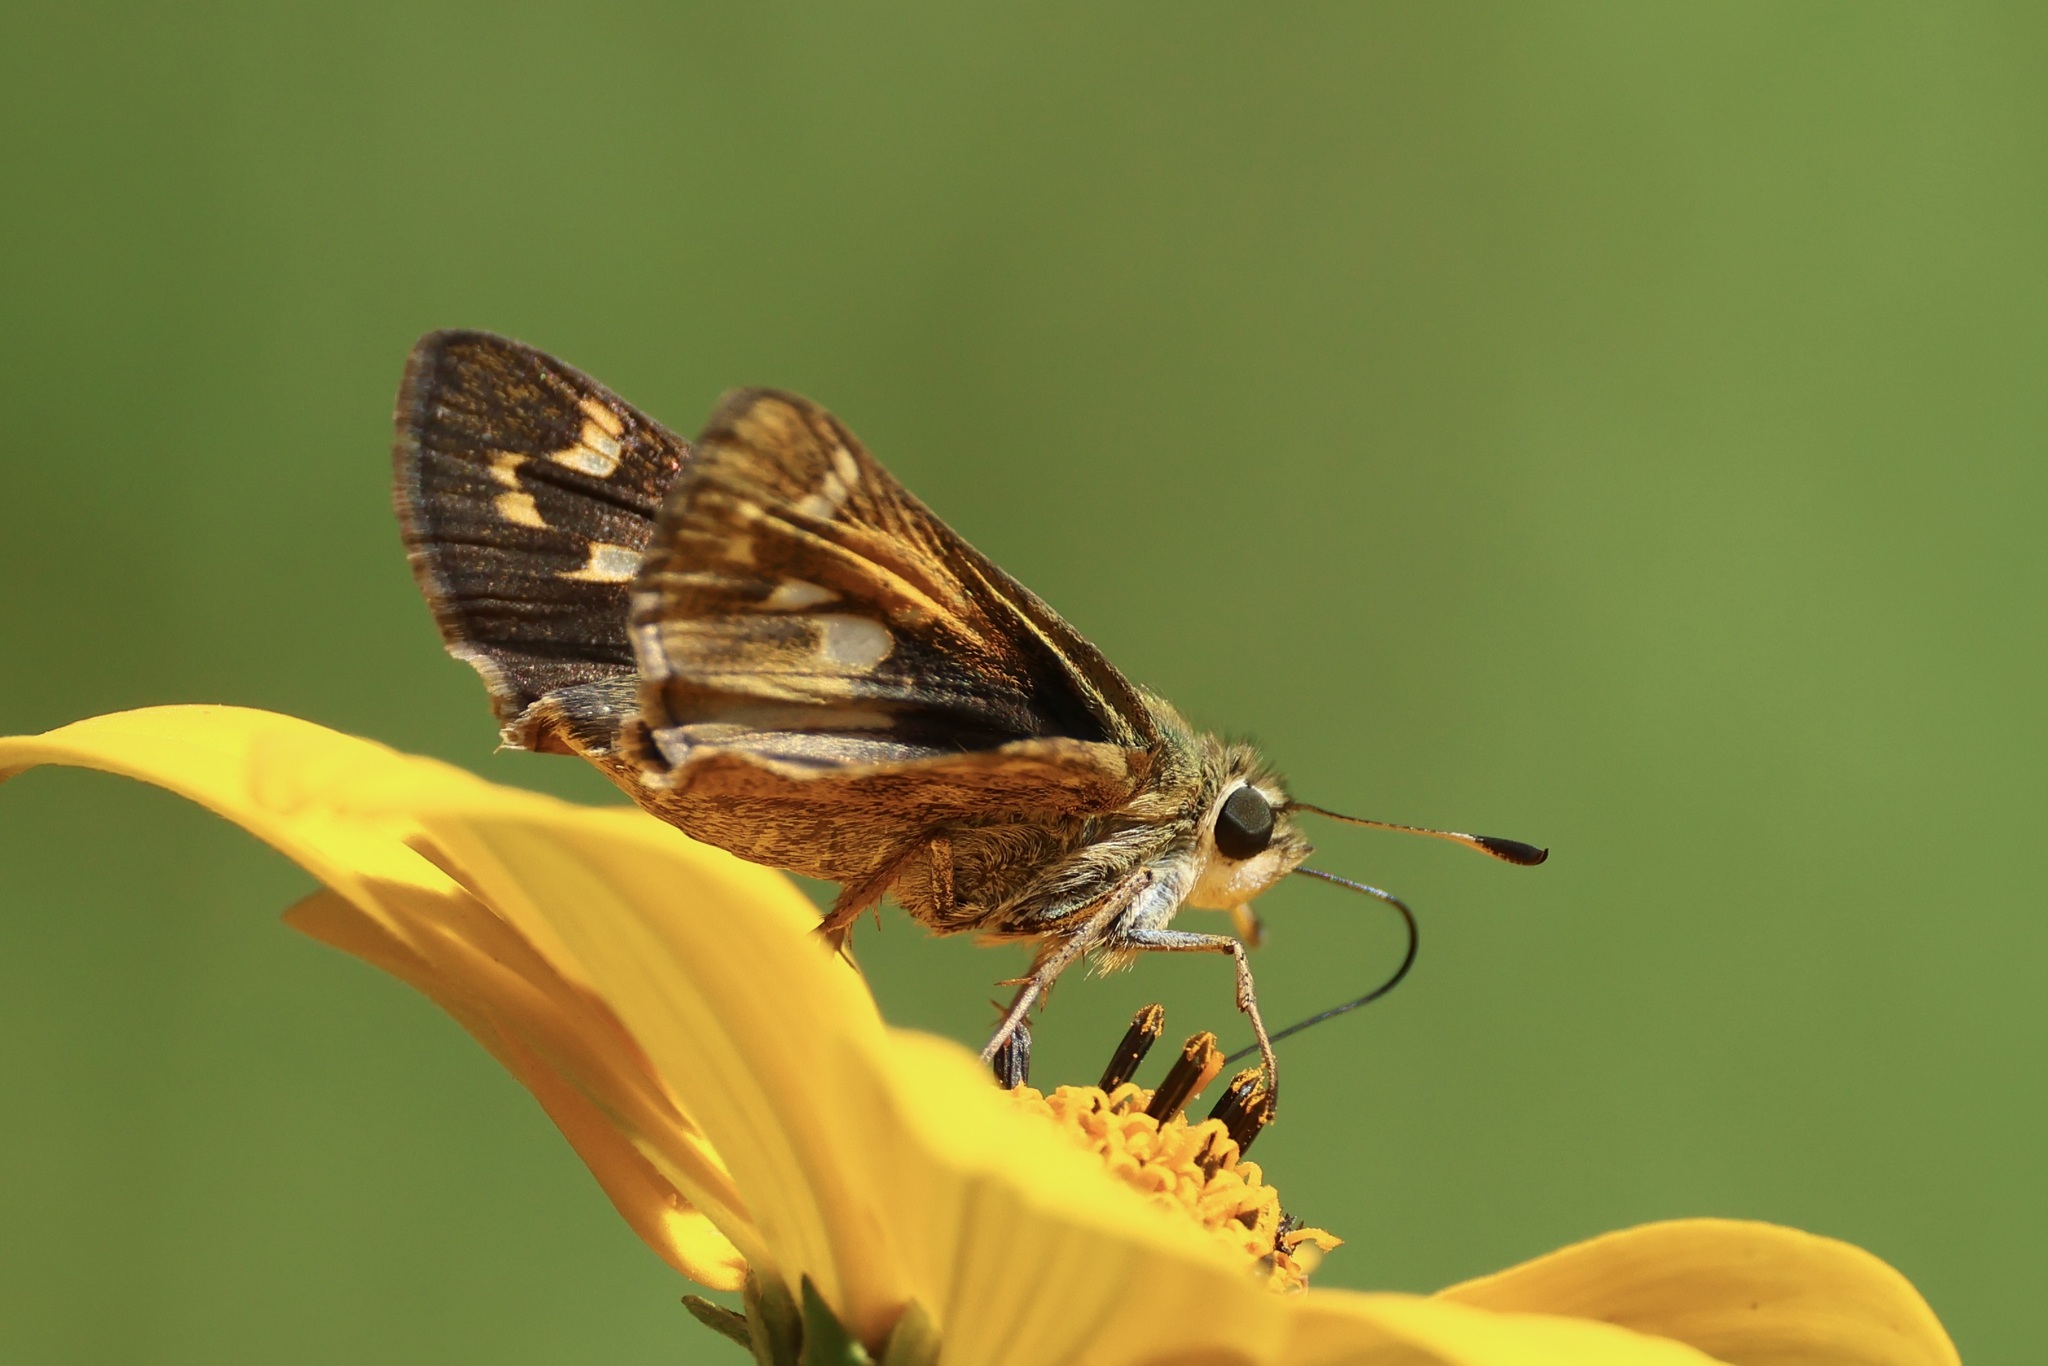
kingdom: Animalia
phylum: Arthropoda
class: Insecta
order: Lepidoptera
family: Hesperiidae
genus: Atalopedes
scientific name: Atalopedes
